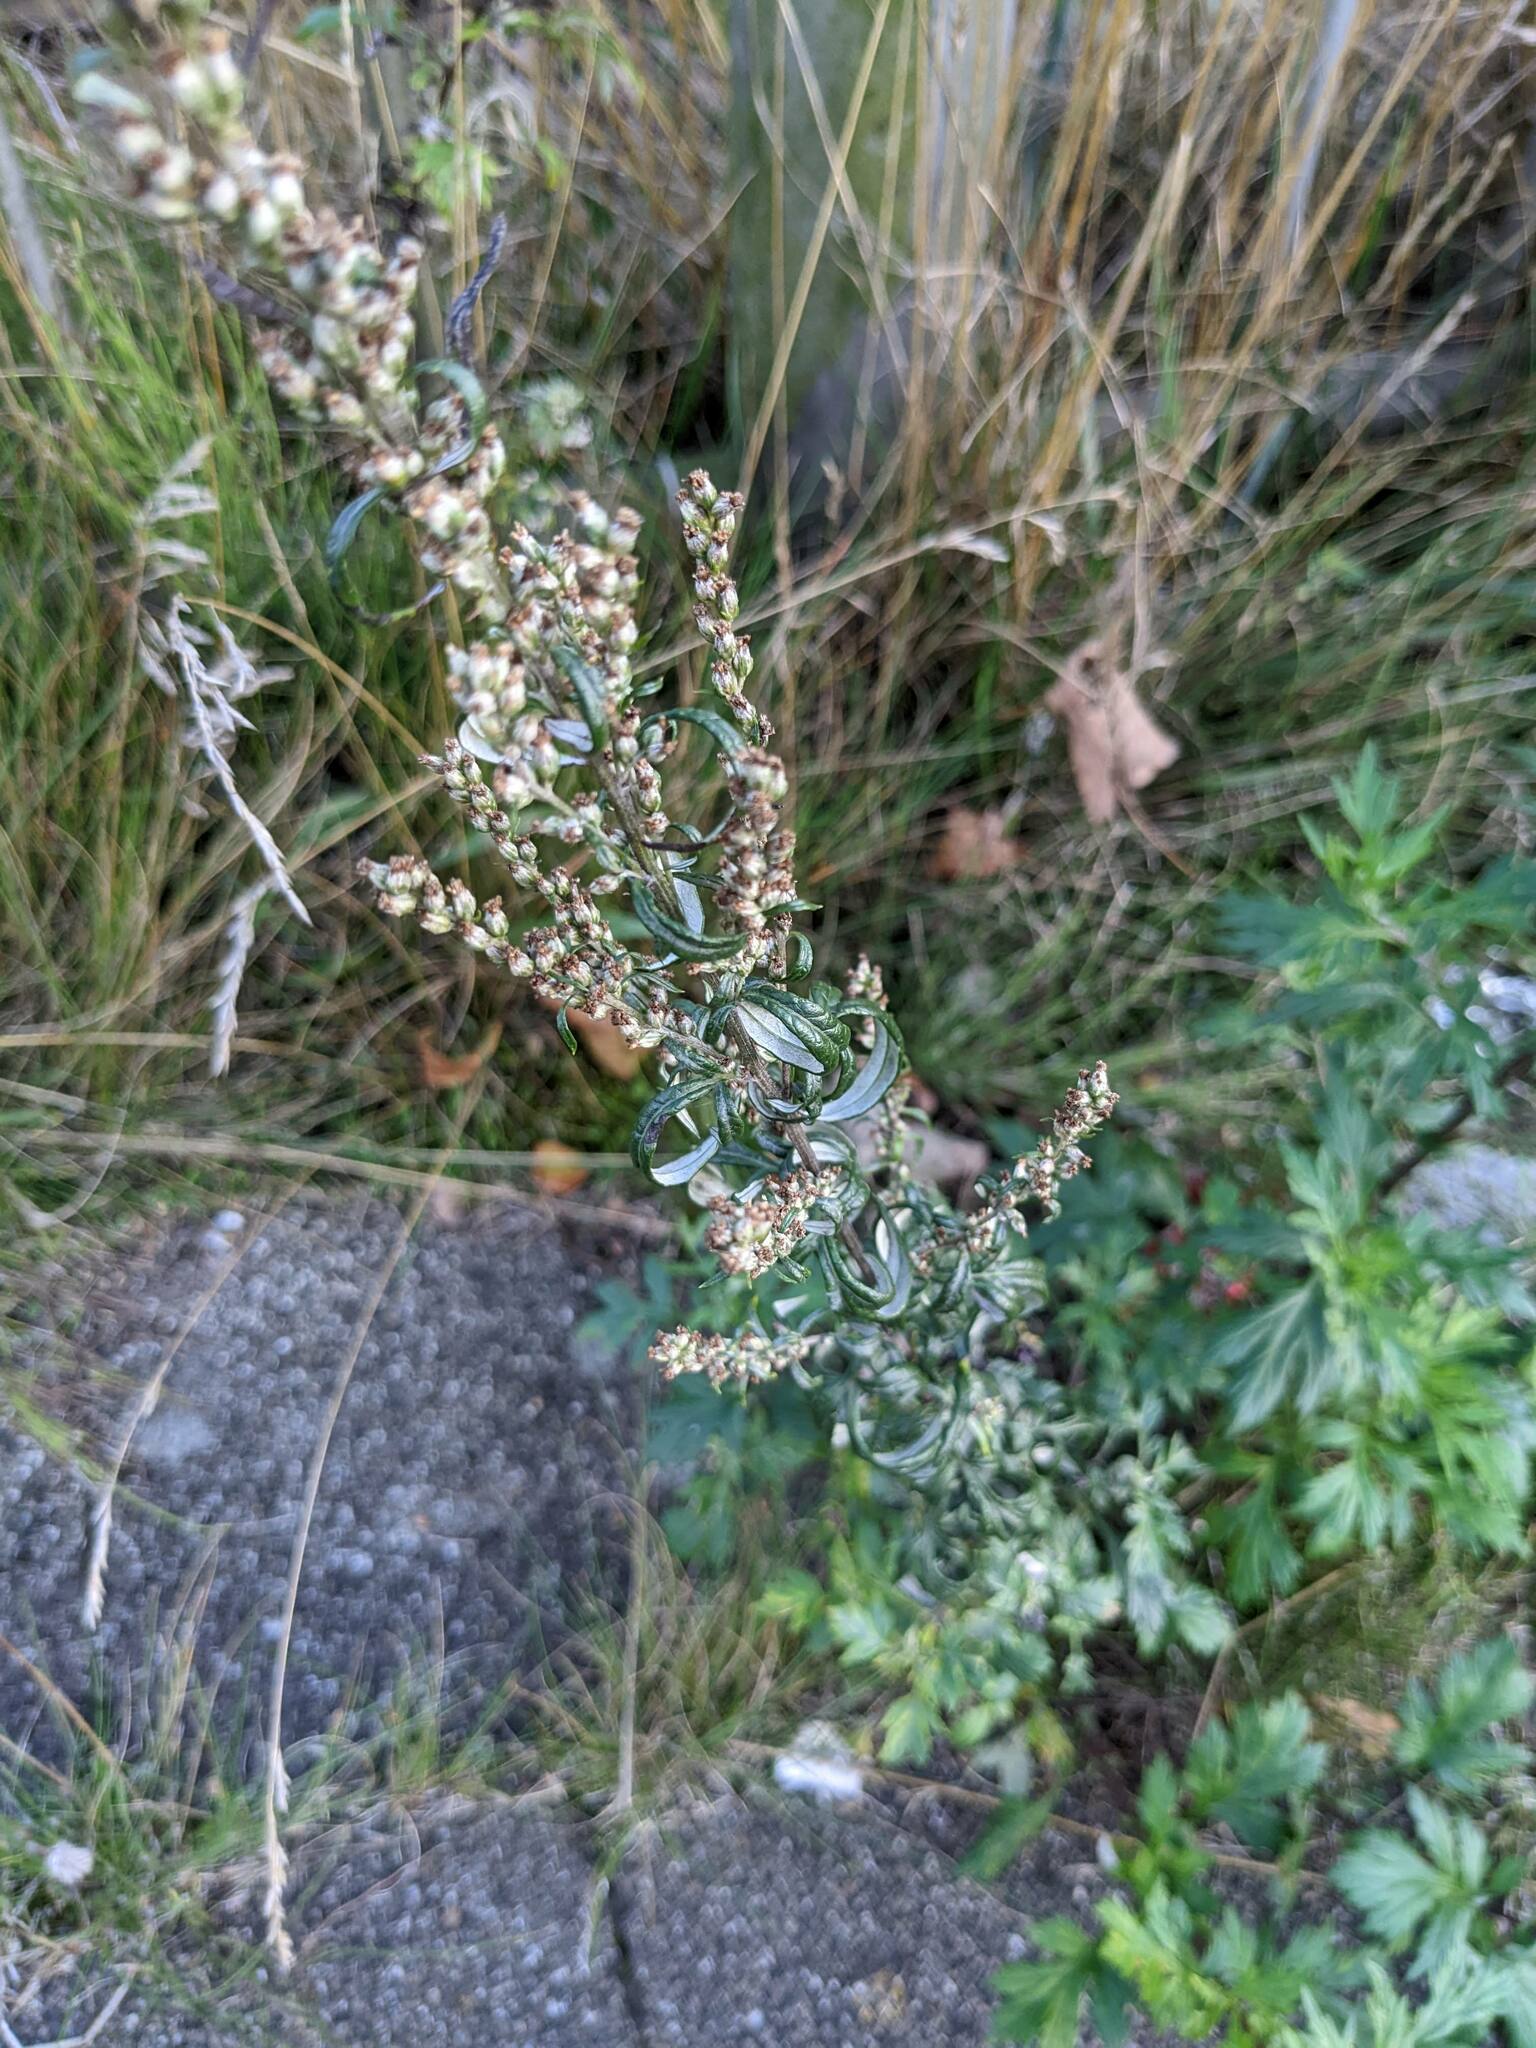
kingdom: Plantae
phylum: Tracheophyta
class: Magnoliopsida
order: Asterales
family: Asteraceae
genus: Artemisia
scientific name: Artemisia vulgaris
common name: Mugwort
